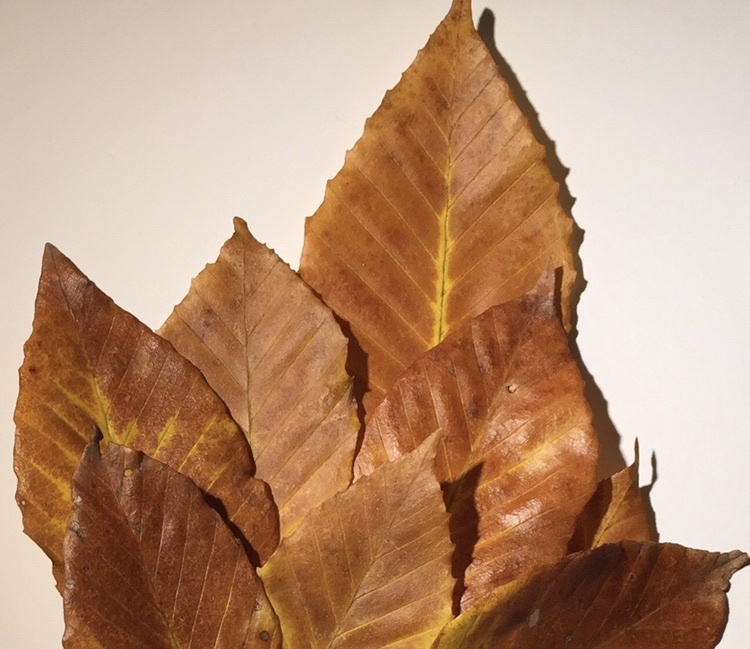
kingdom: Plantae
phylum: Tracheophyta
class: Magnoliopsida
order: Fagales
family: Fagaceae
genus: Fagus
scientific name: Fagus grandifolia
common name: American beech
